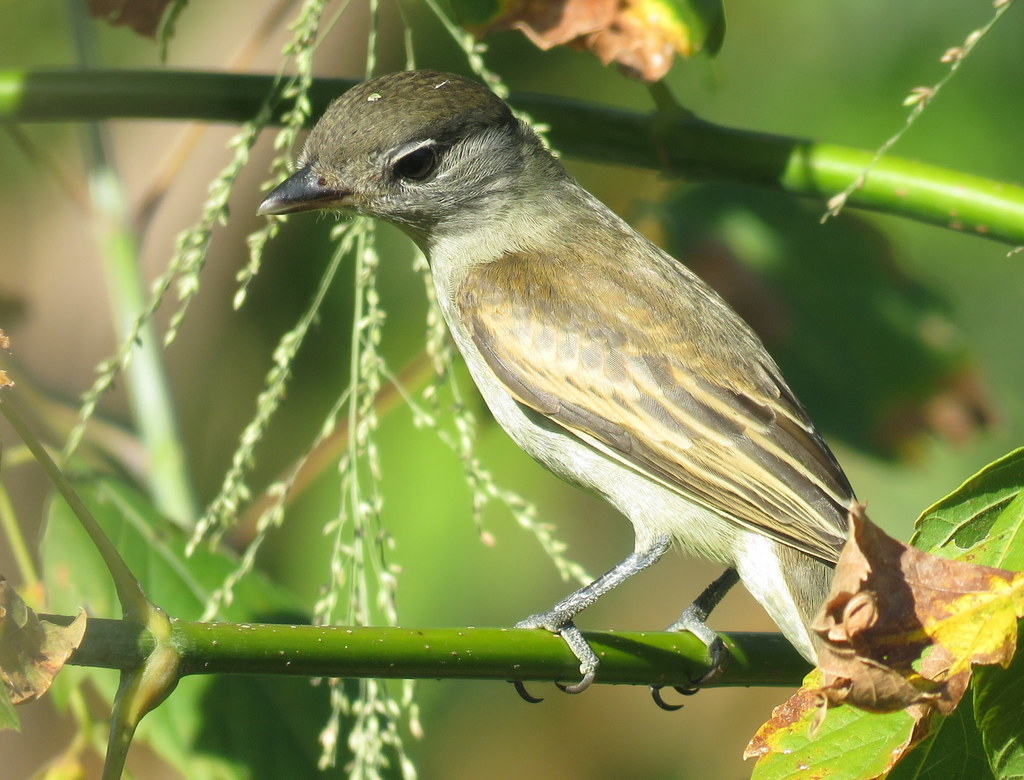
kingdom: Animalia
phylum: Chordata
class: Aves
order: Passeriformes
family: Cotingidae
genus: Pachyramphus
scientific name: Pachyramphus polychopterus
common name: White-winged becard
